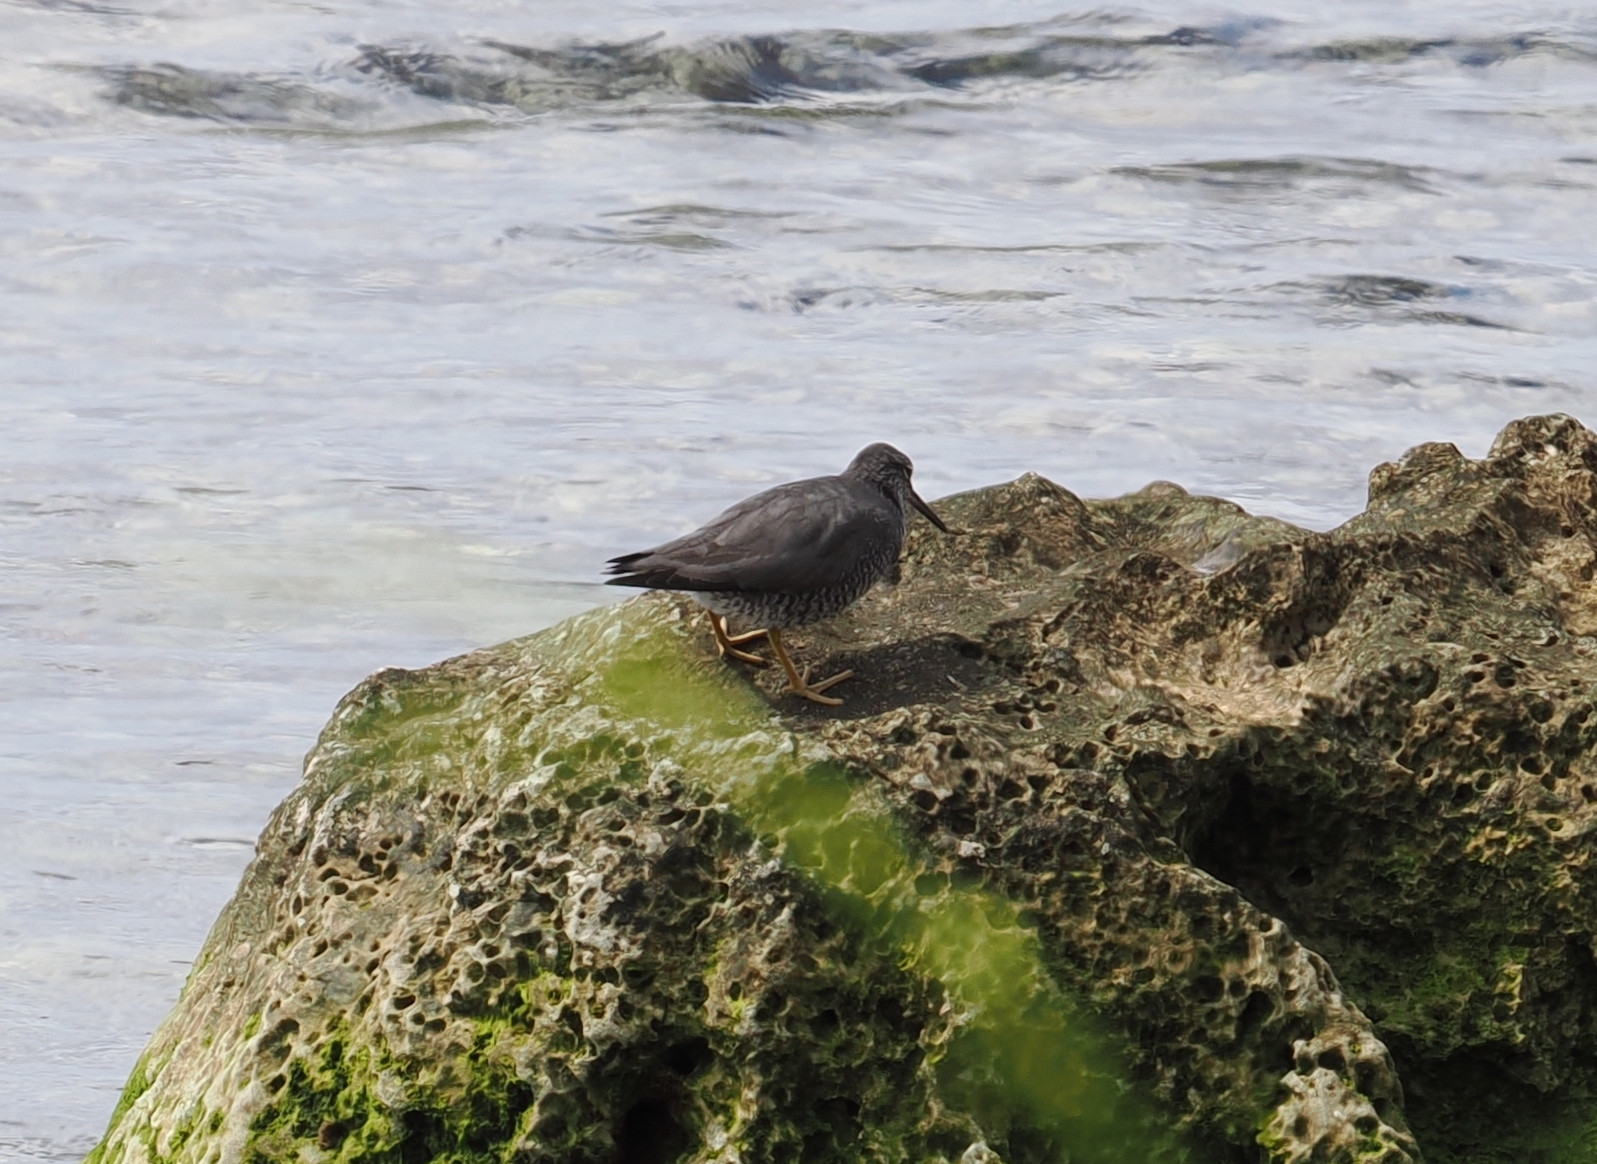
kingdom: Animalia
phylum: Chordata
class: Aves
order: Charadriiformes
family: Scolopacidae
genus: Tringa
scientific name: Tringa incana
